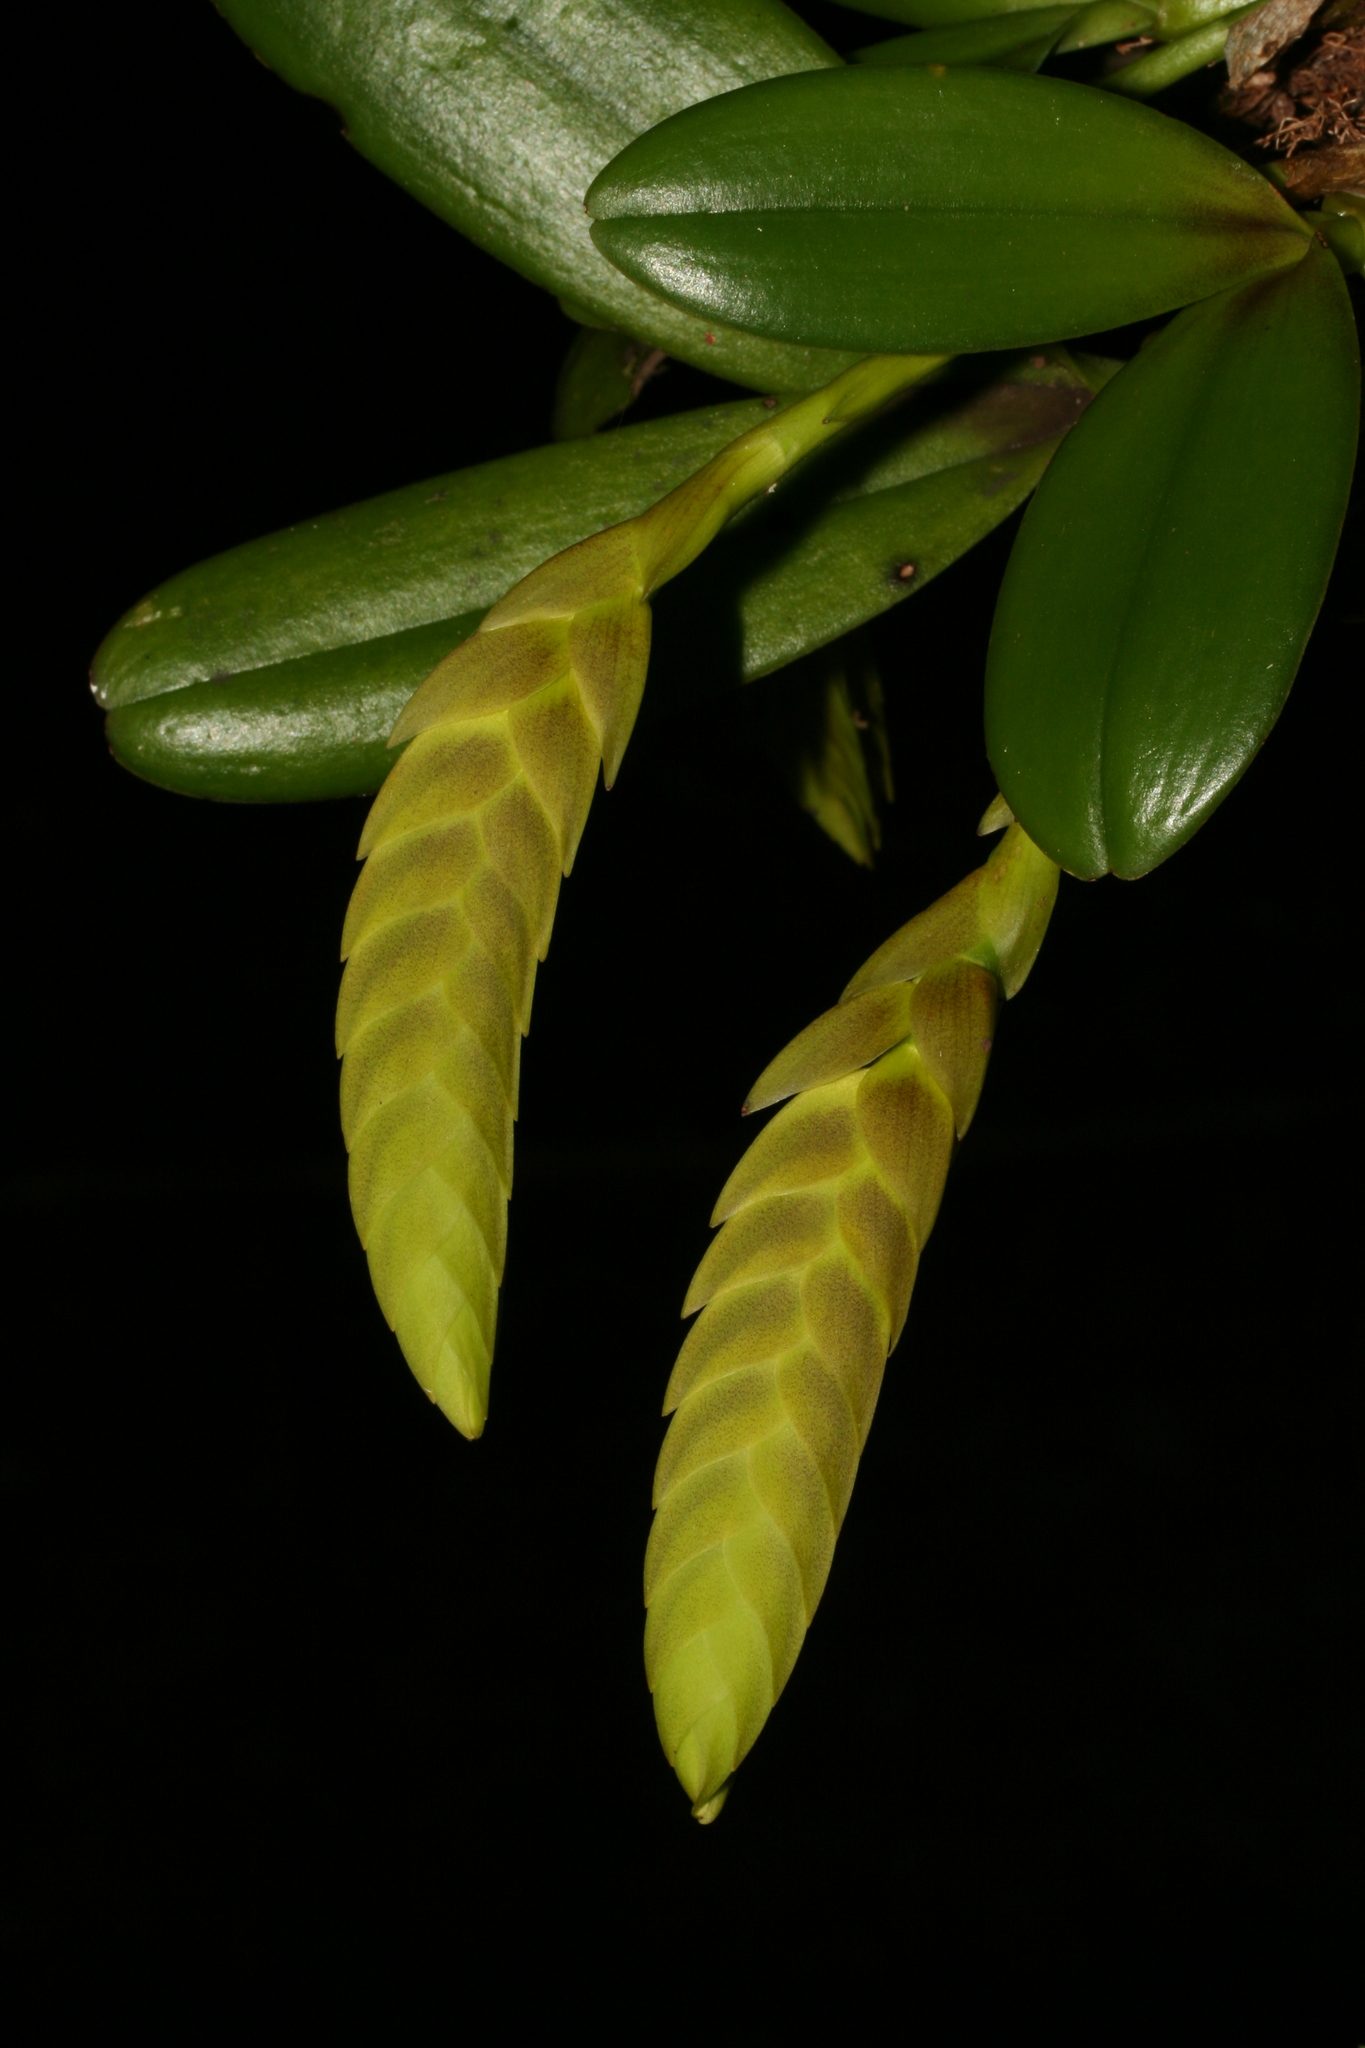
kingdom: Plantae
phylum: Tracheophyta
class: Liliopsida
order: Asparagales
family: Orchidaceae
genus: Bulbophyllum
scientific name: Bulbophyllum occultum
